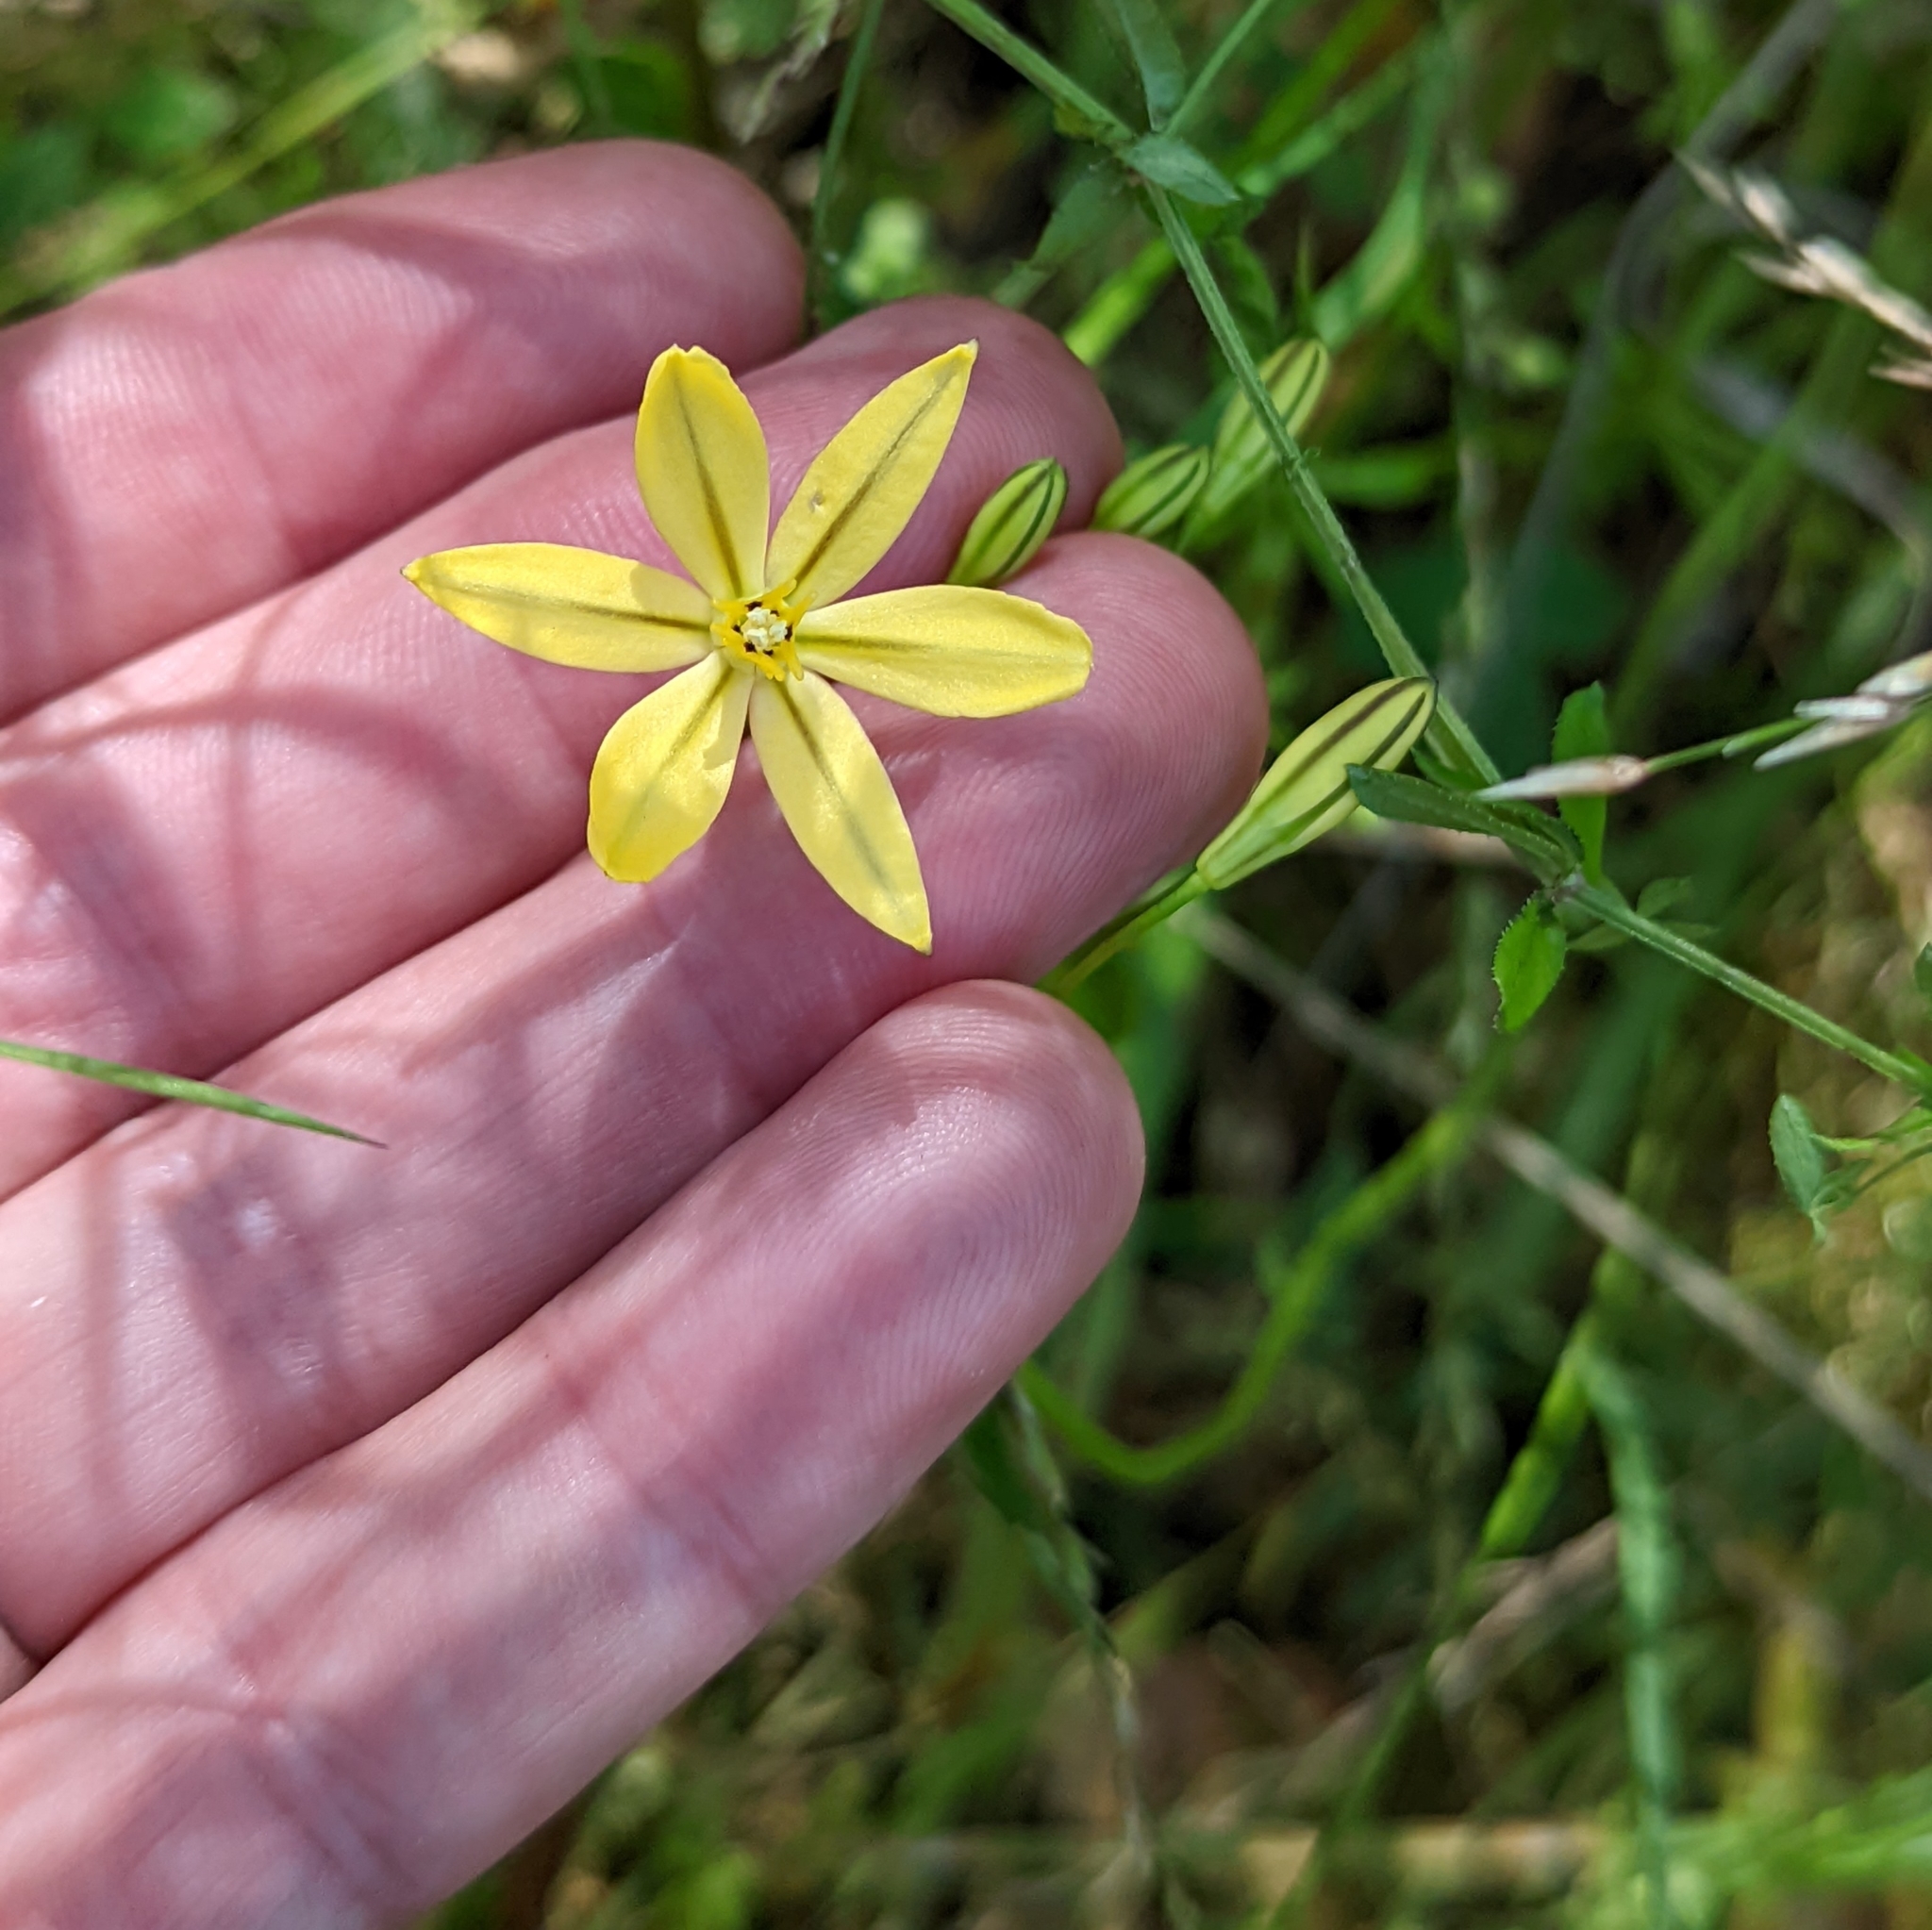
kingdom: Plantae
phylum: Tracheophyta
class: Liliopsida
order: Asparagales
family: Asparagaceae
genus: Triteleia
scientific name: Triteleia ixioides
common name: Yellow-brodiaea
